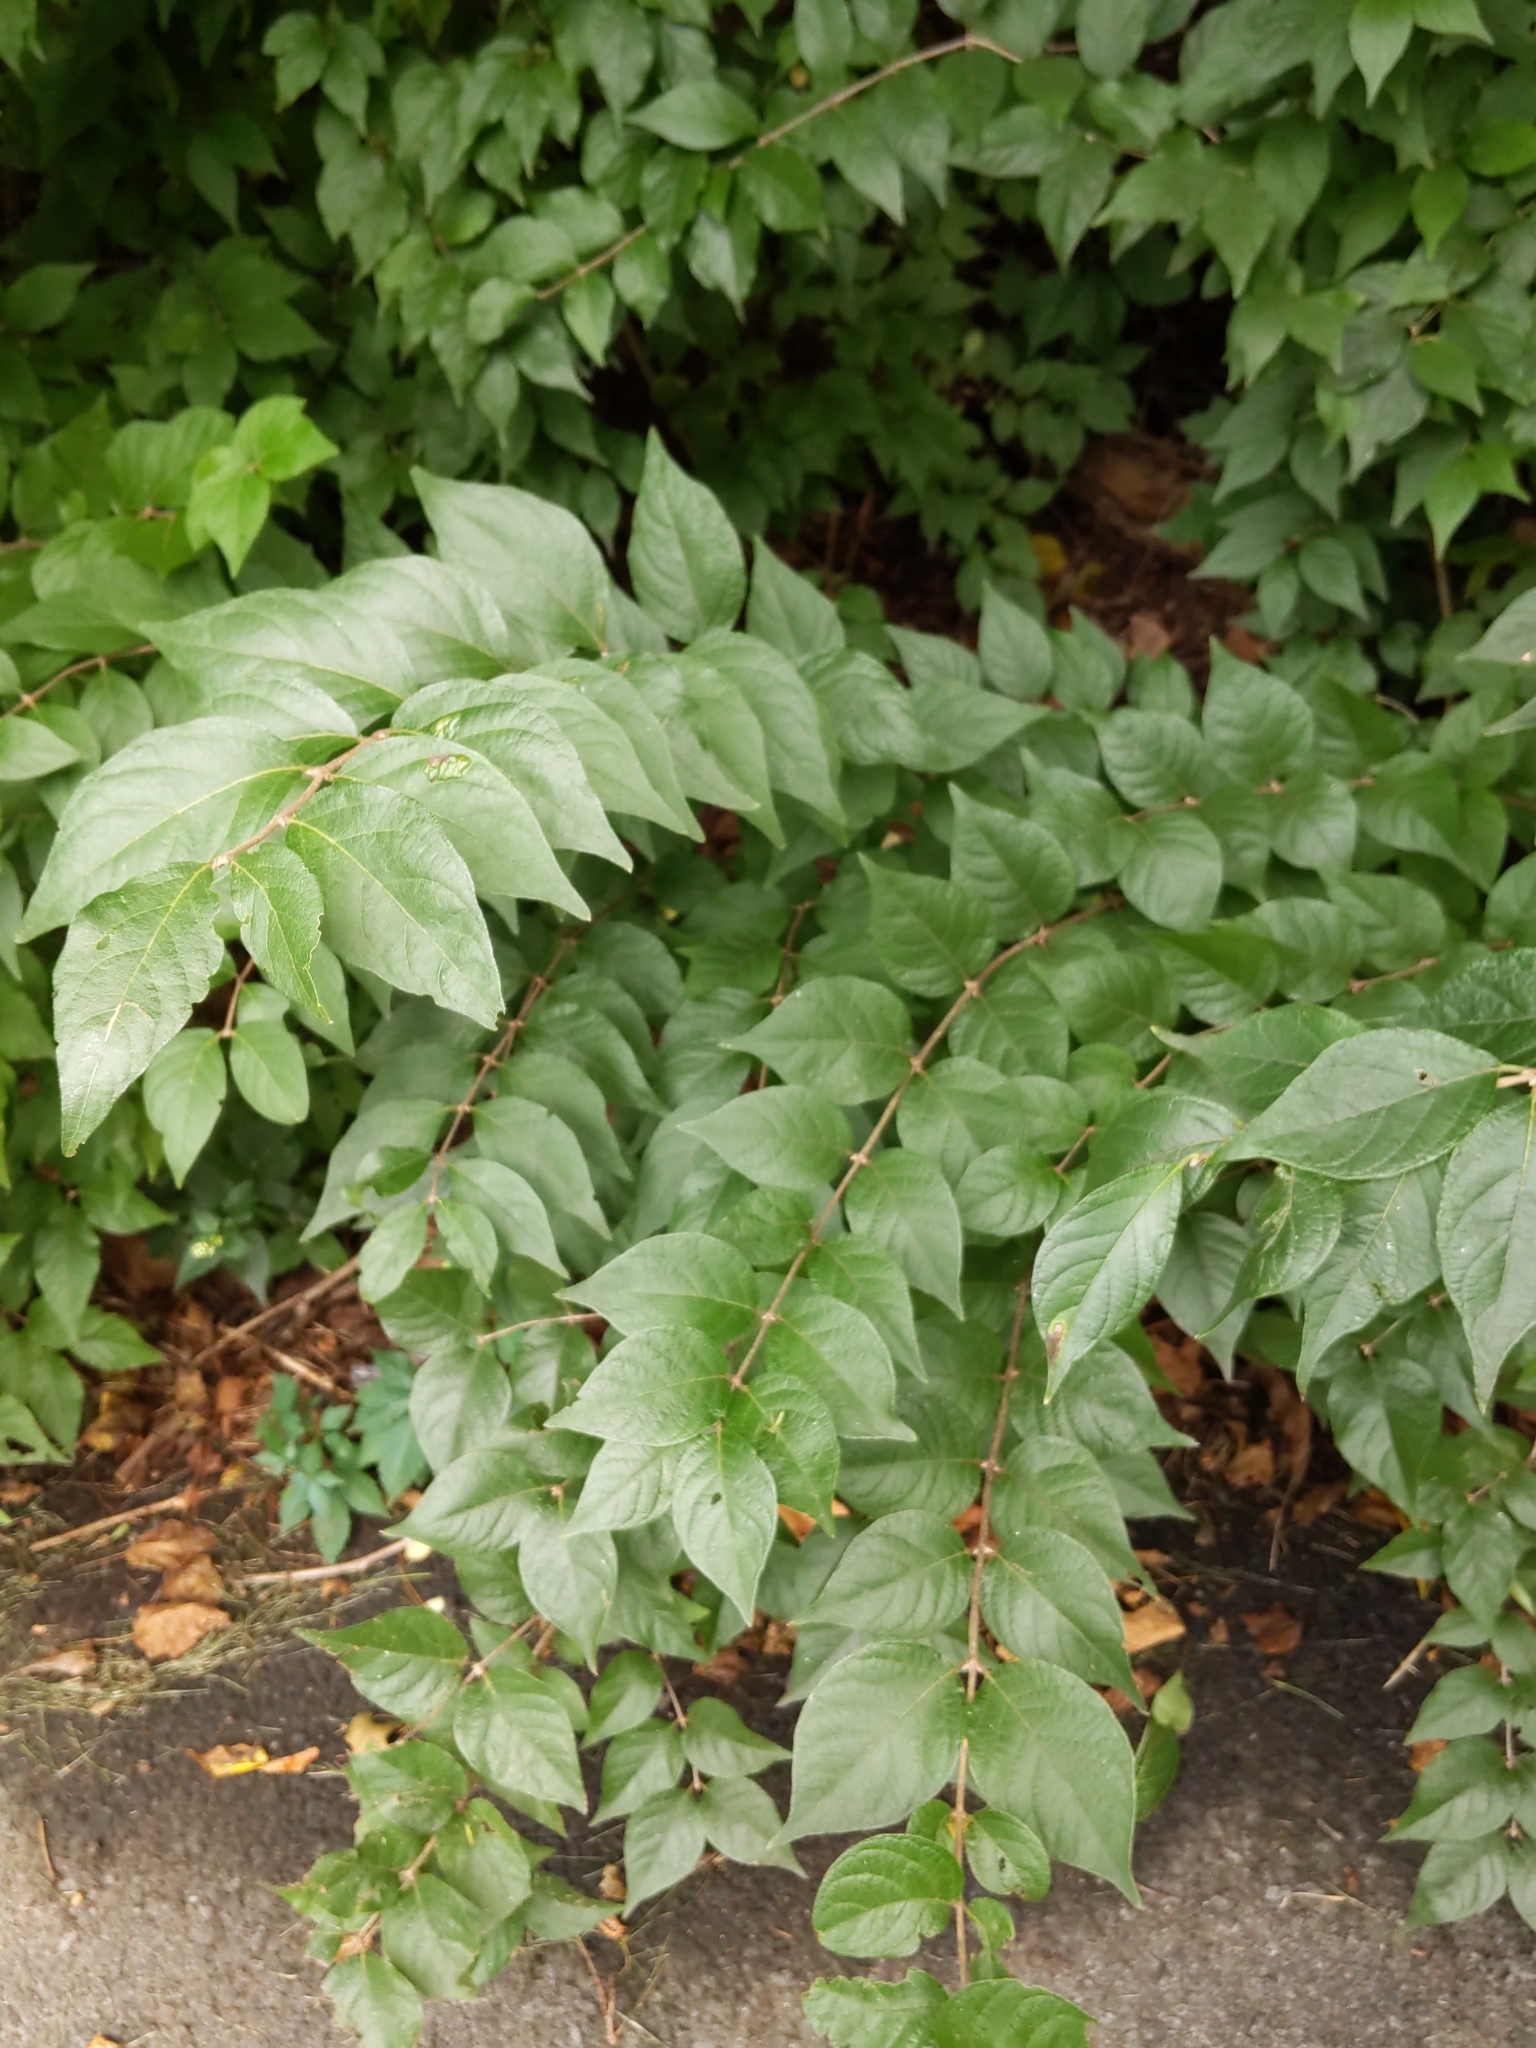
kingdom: Plantae
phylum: Tracheophyta
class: Magnoliopsida
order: Dipsacales
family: Caprifoliaceae
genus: Lonicera
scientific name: Lonicera maackii
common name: Amur honeysuckle
